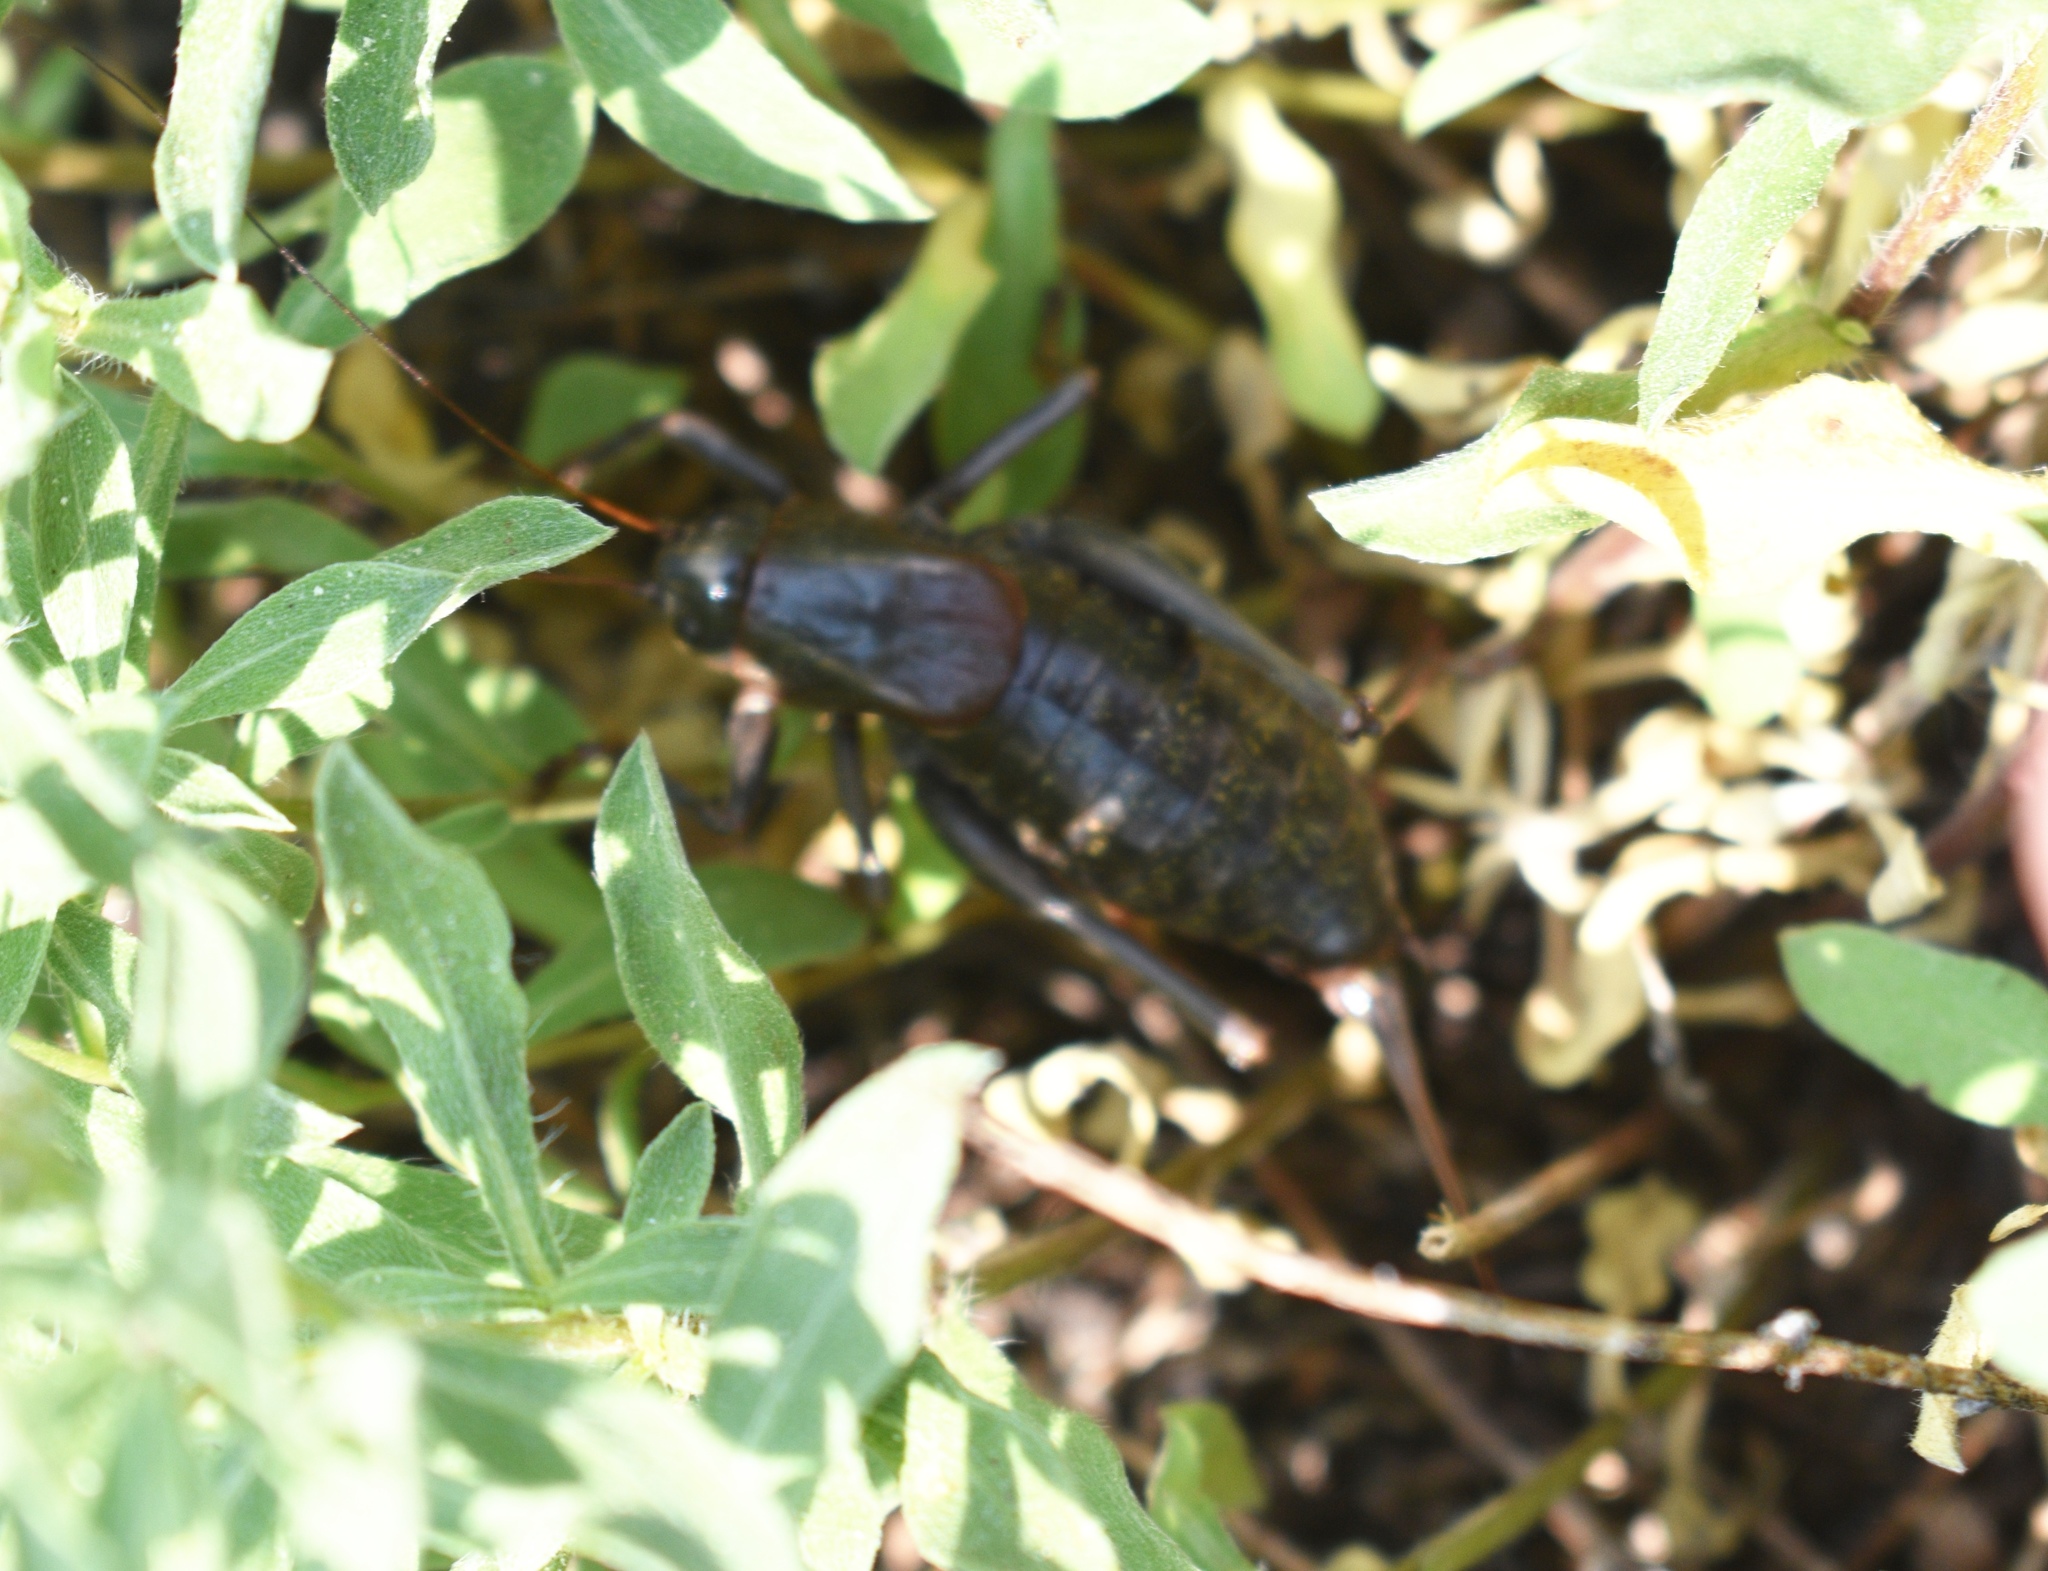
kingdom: Animalia
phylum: Arthropoda
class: Insecta
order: Orthoptera
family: Tettigoniidae
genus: Anabrus
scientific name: Anabrus simplex
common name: Mormon cricket
